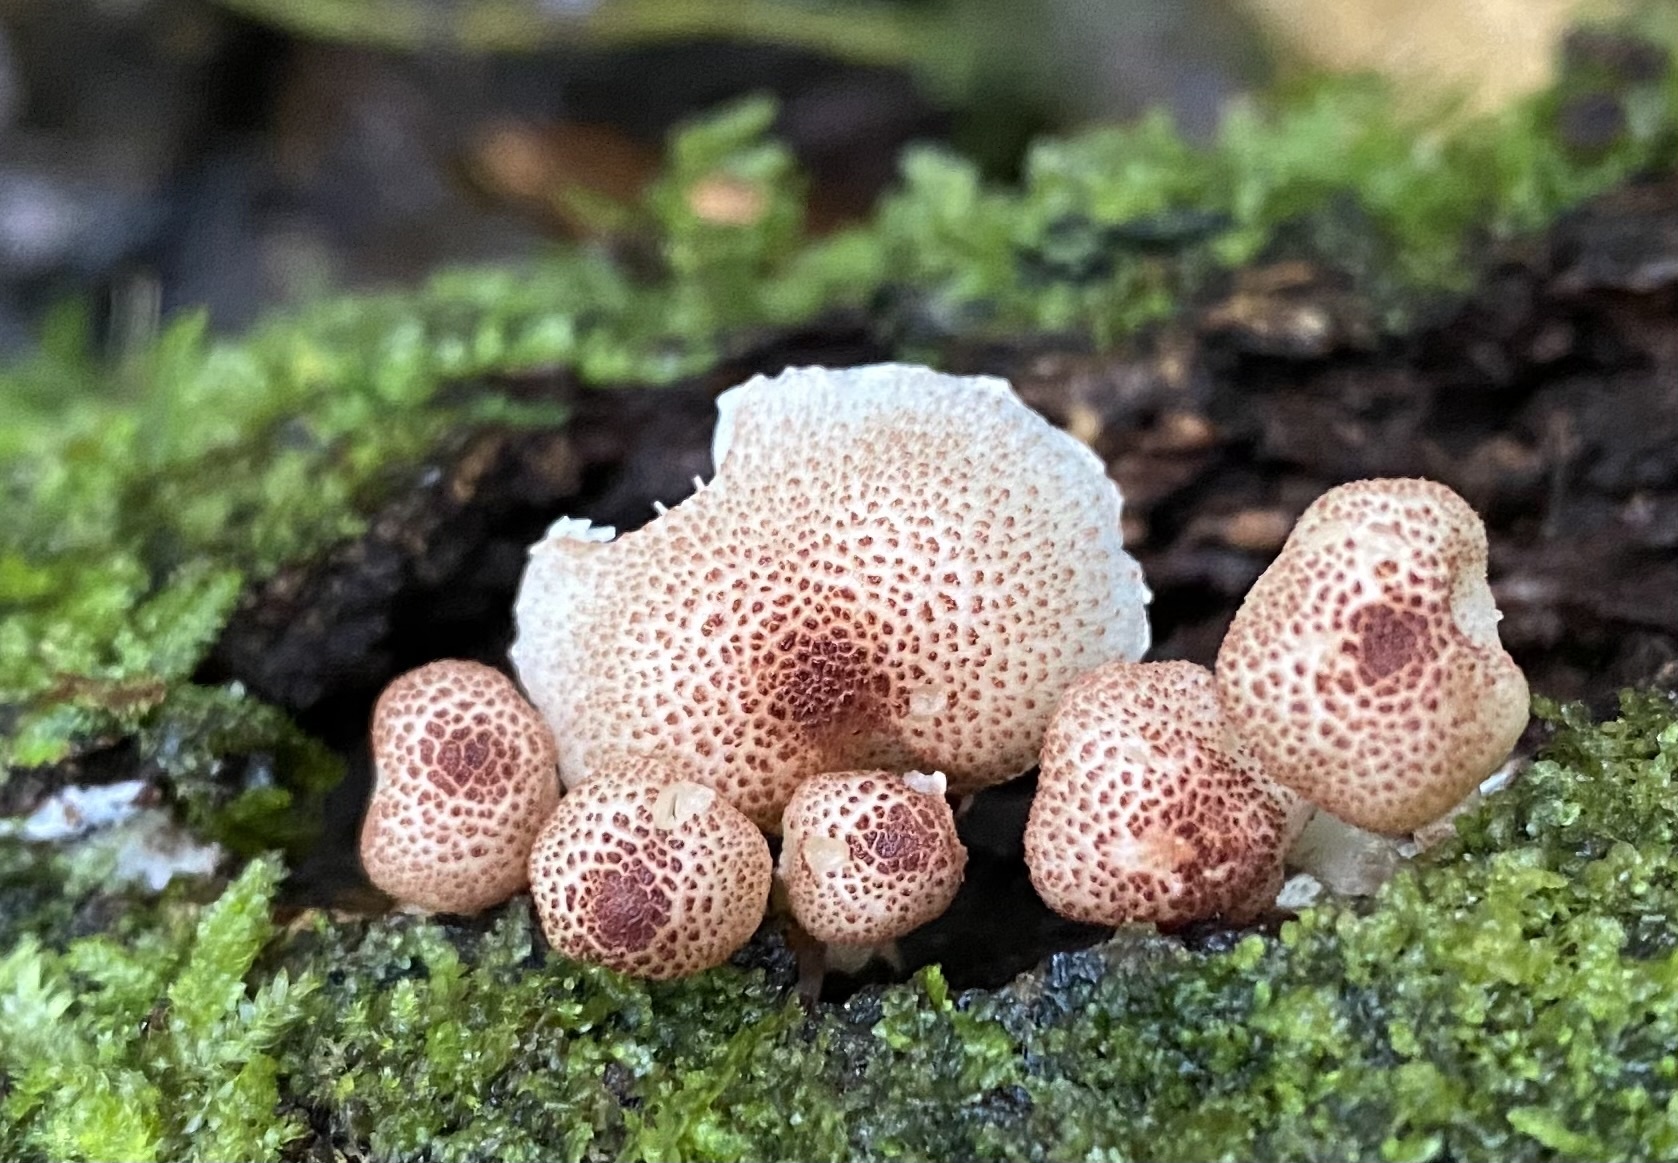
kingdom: Fungi
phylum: Basidiomycota
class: Agaricomycetes
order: Agaricales
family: Agaricaceae
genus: Ripartitella
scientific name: Ripartitella brasiliensis
